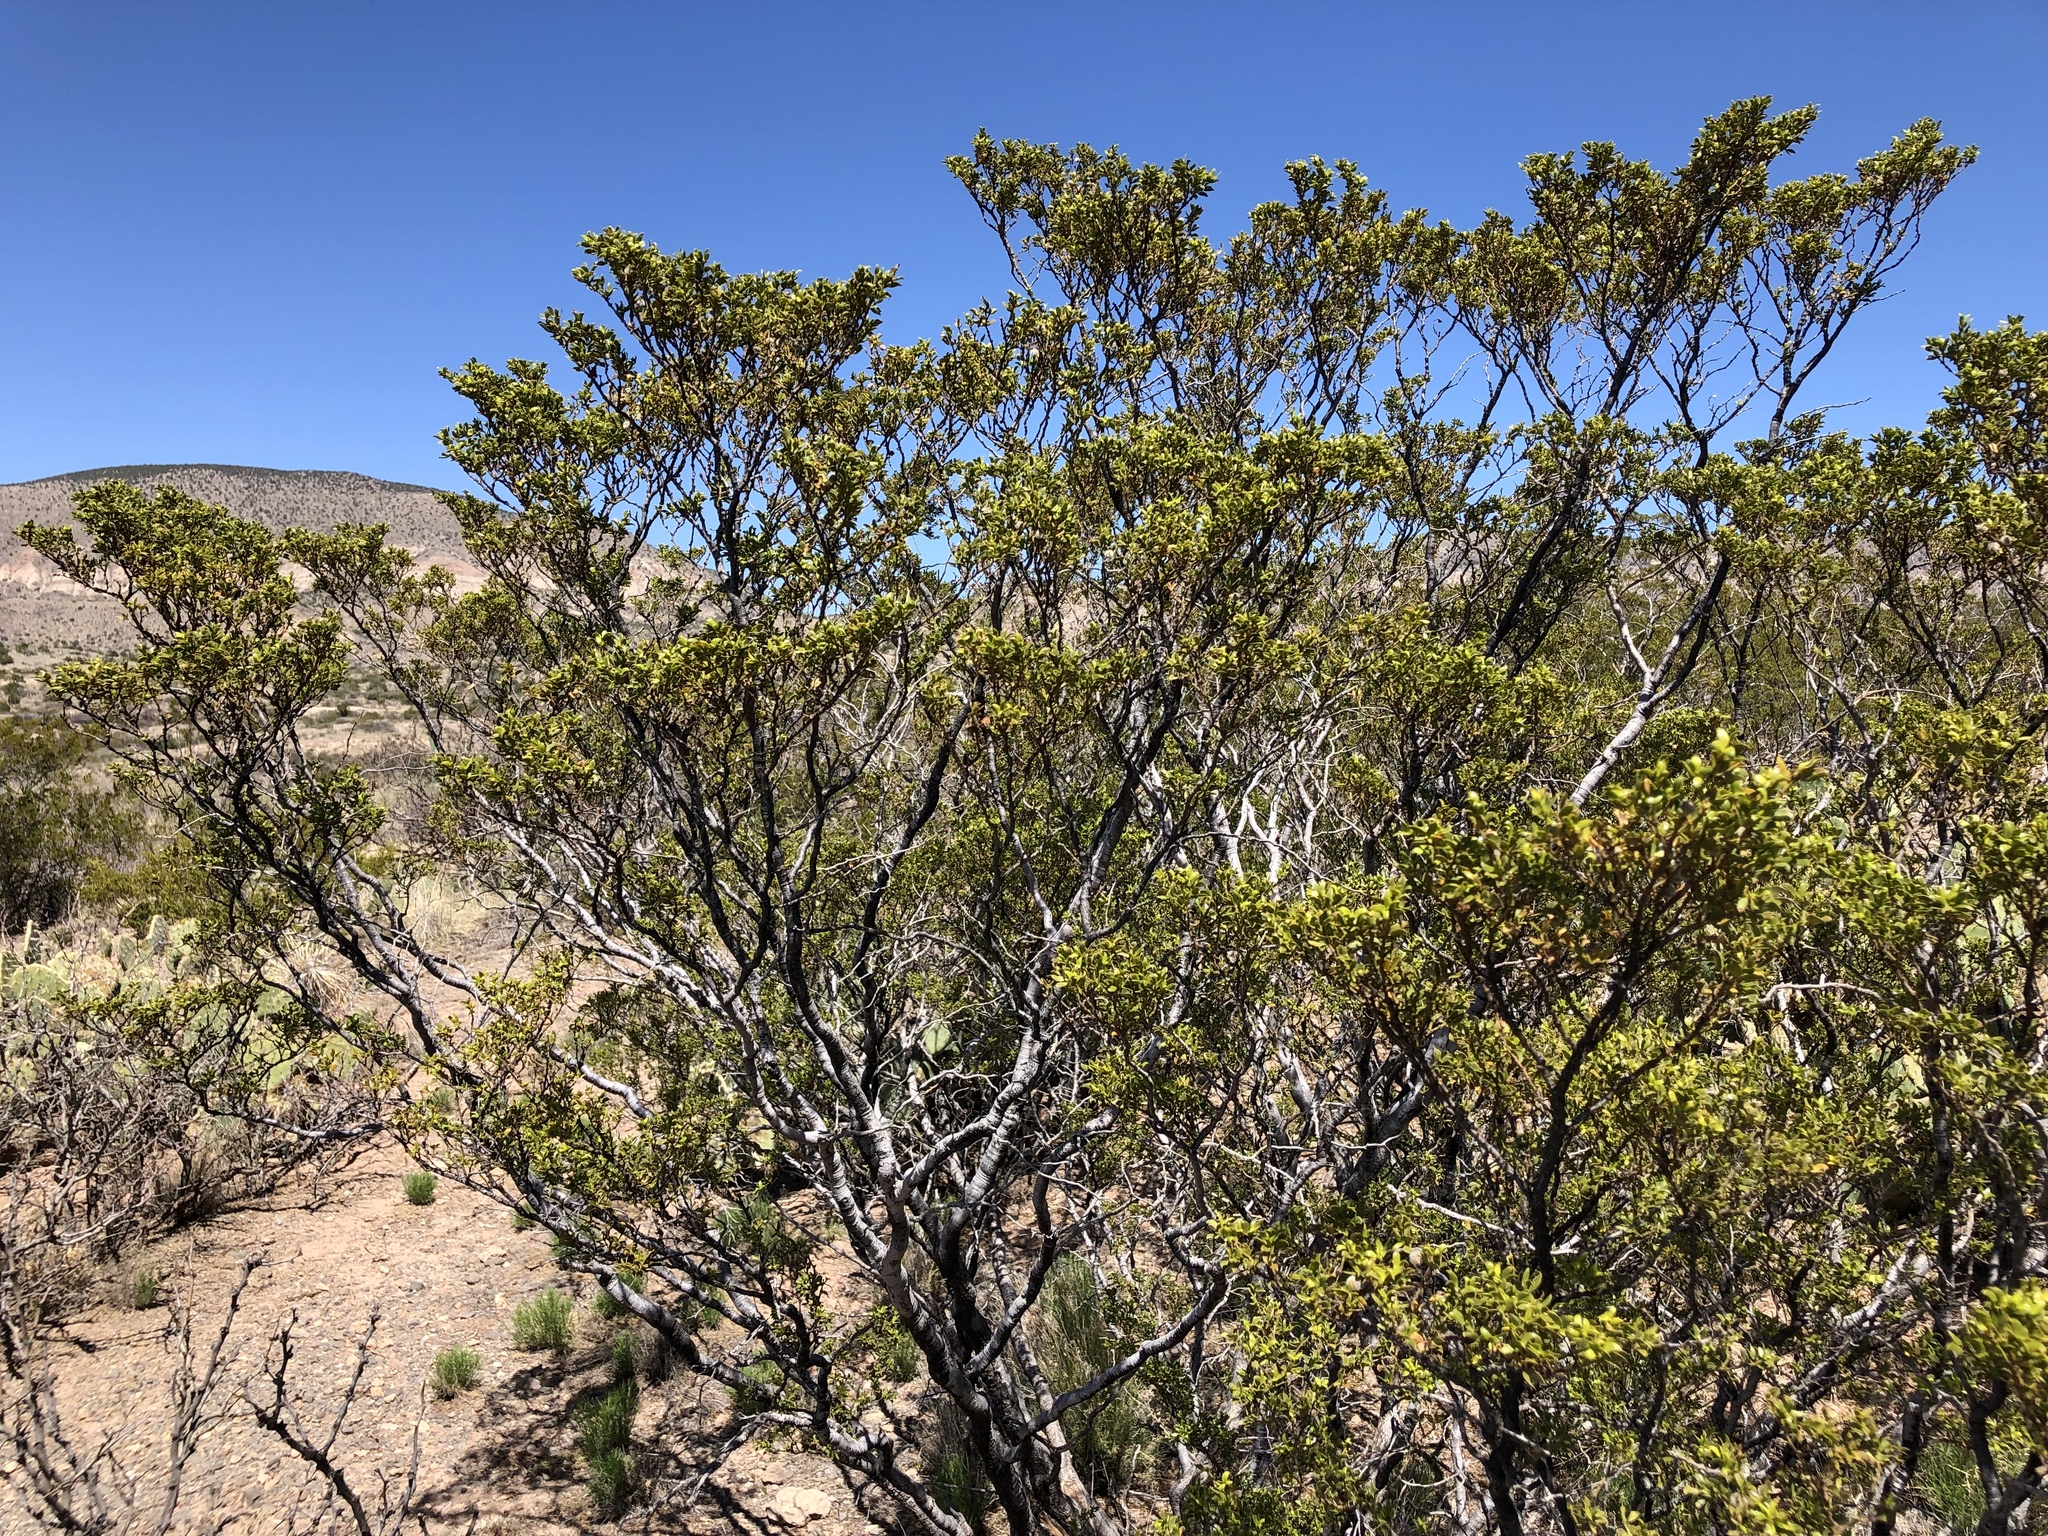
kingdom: Plantae
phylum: Tracheophyta
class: Magnoliopsida
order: Zygophyllales
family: Zygophyllaceae
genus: Larrea
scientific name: Larrea tridentata
